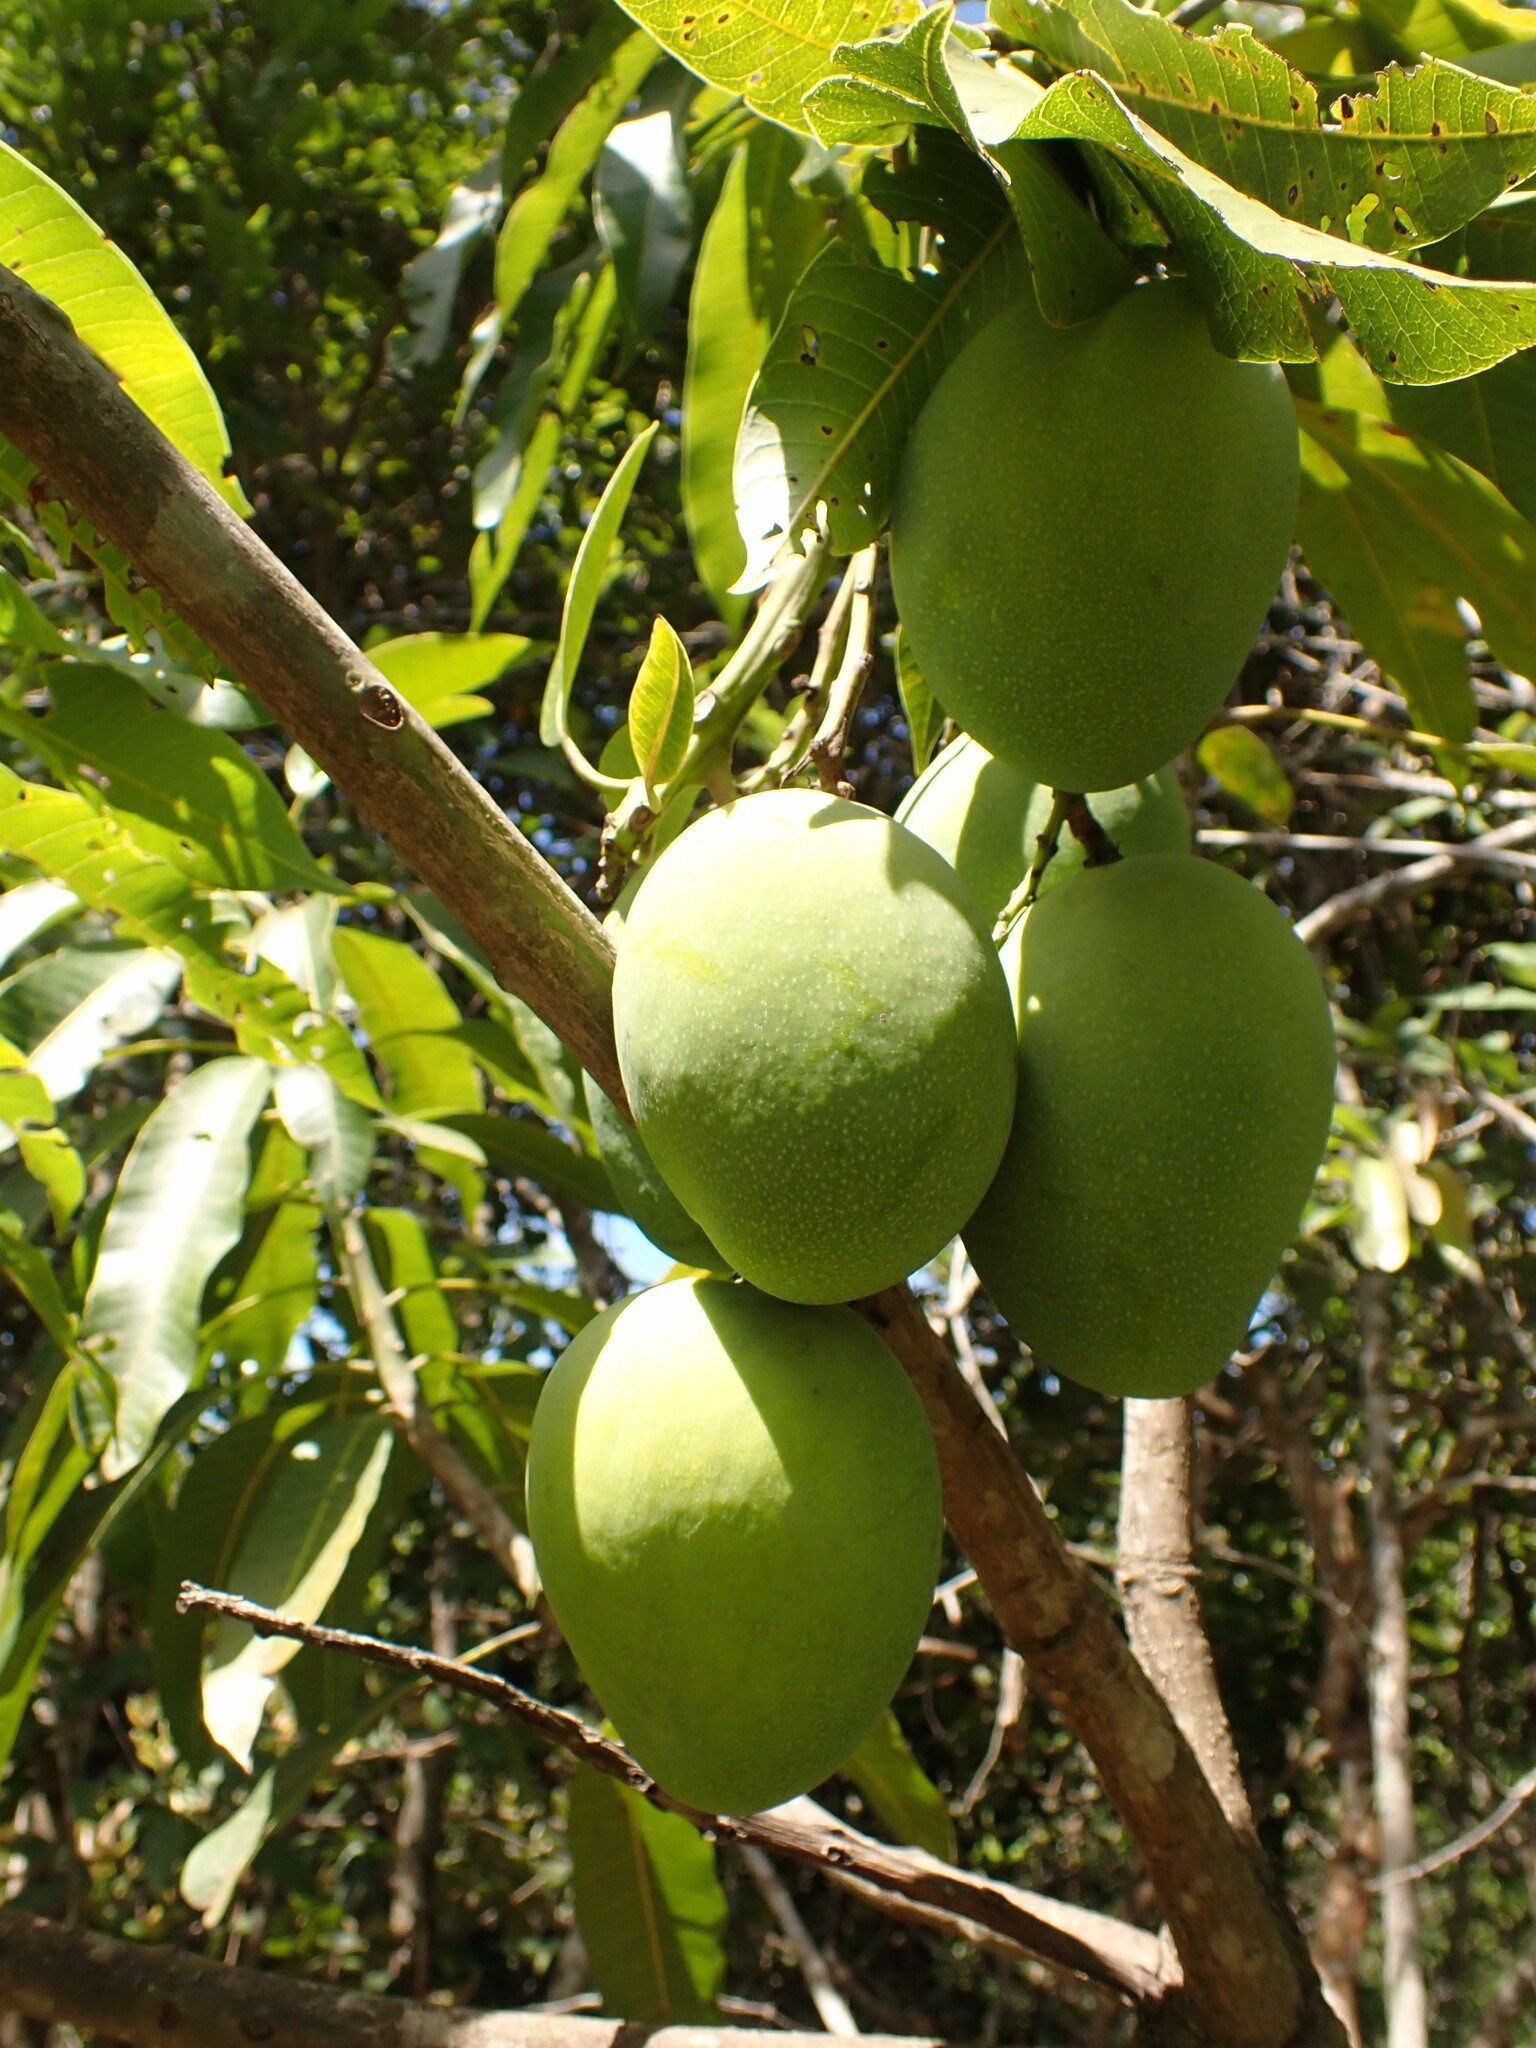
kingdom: Plantae
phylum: Tracheophyta
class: Magnoliopsida
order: Sapindales
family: Anacardiaceae
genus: Mangifera
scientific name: Mangifera indica
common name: Mango
